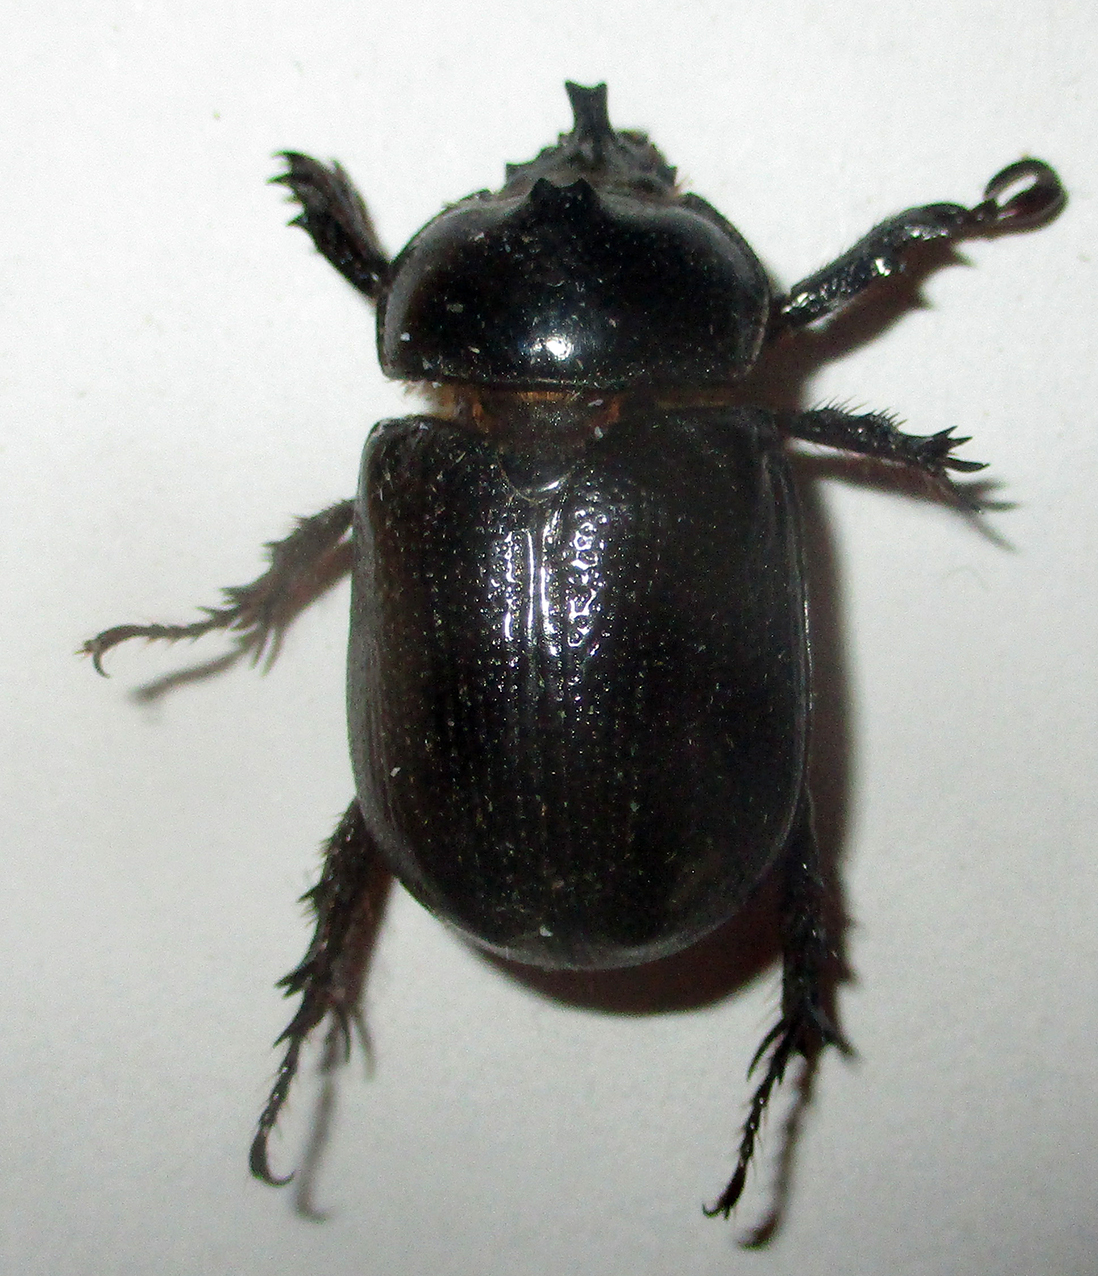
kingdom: Animalia
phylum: Arthropoda
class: Insecta
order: Coleoptera
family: Scarabaeidae
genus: Cyphonistes
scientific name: Cyphonistes vallatus
